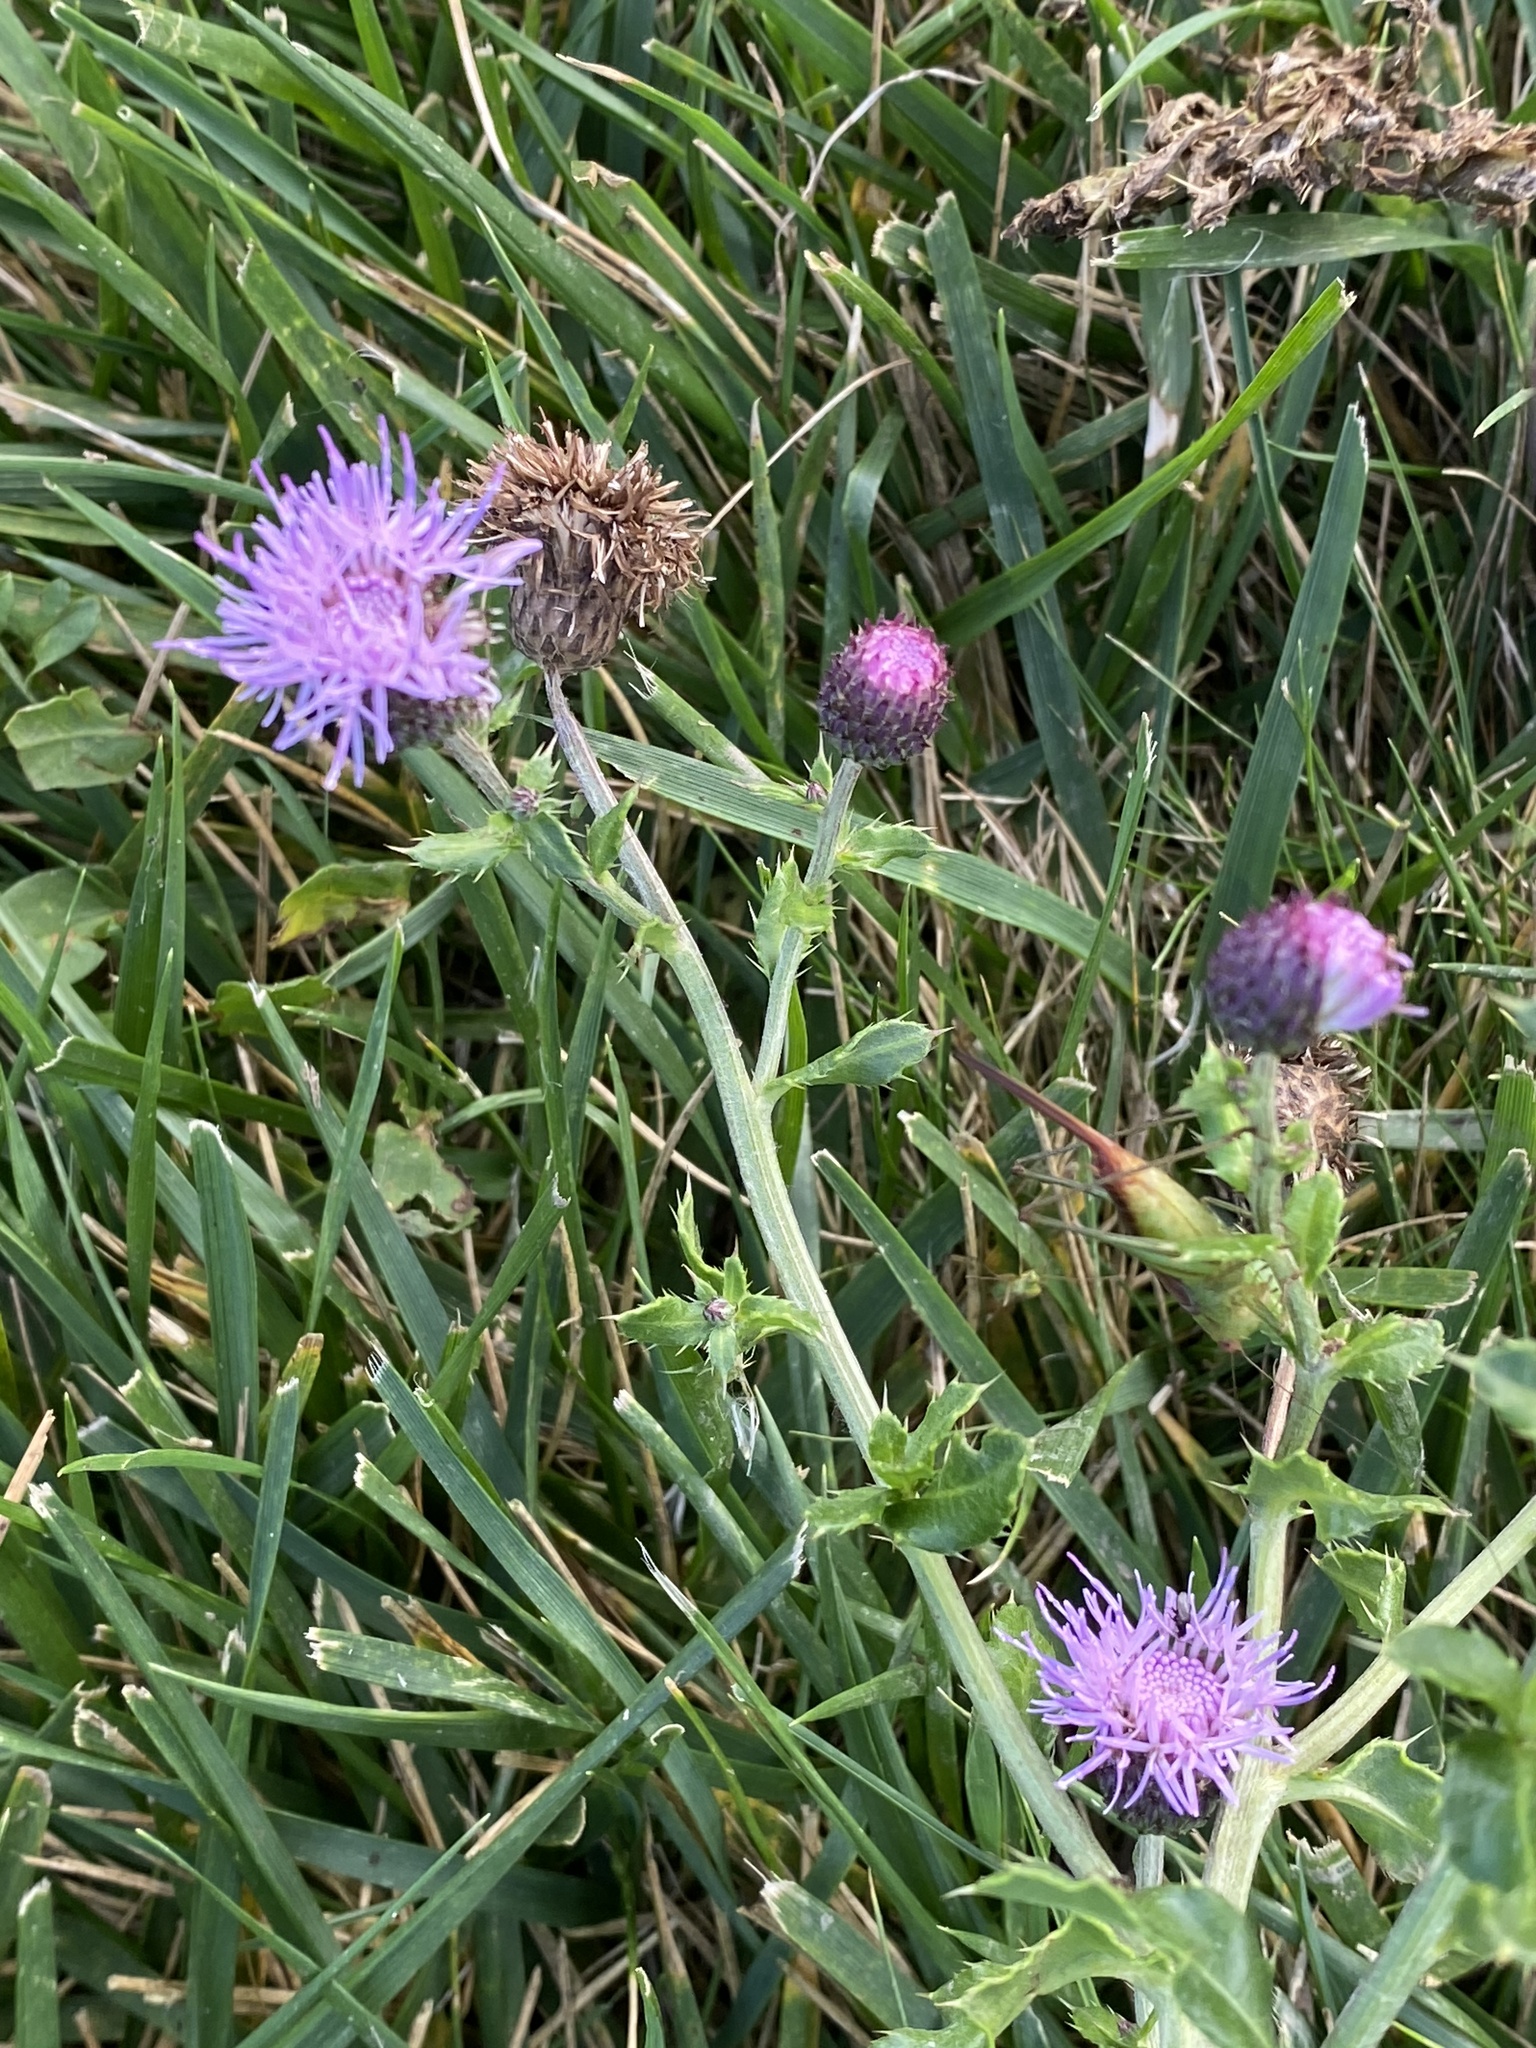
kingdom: Plantae
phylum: Tracheophyta
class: Magnoliopsida
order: Asterales
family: Asteraceae
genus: Cirsium
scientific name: Cirsium arvense
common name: Creeping thistle
